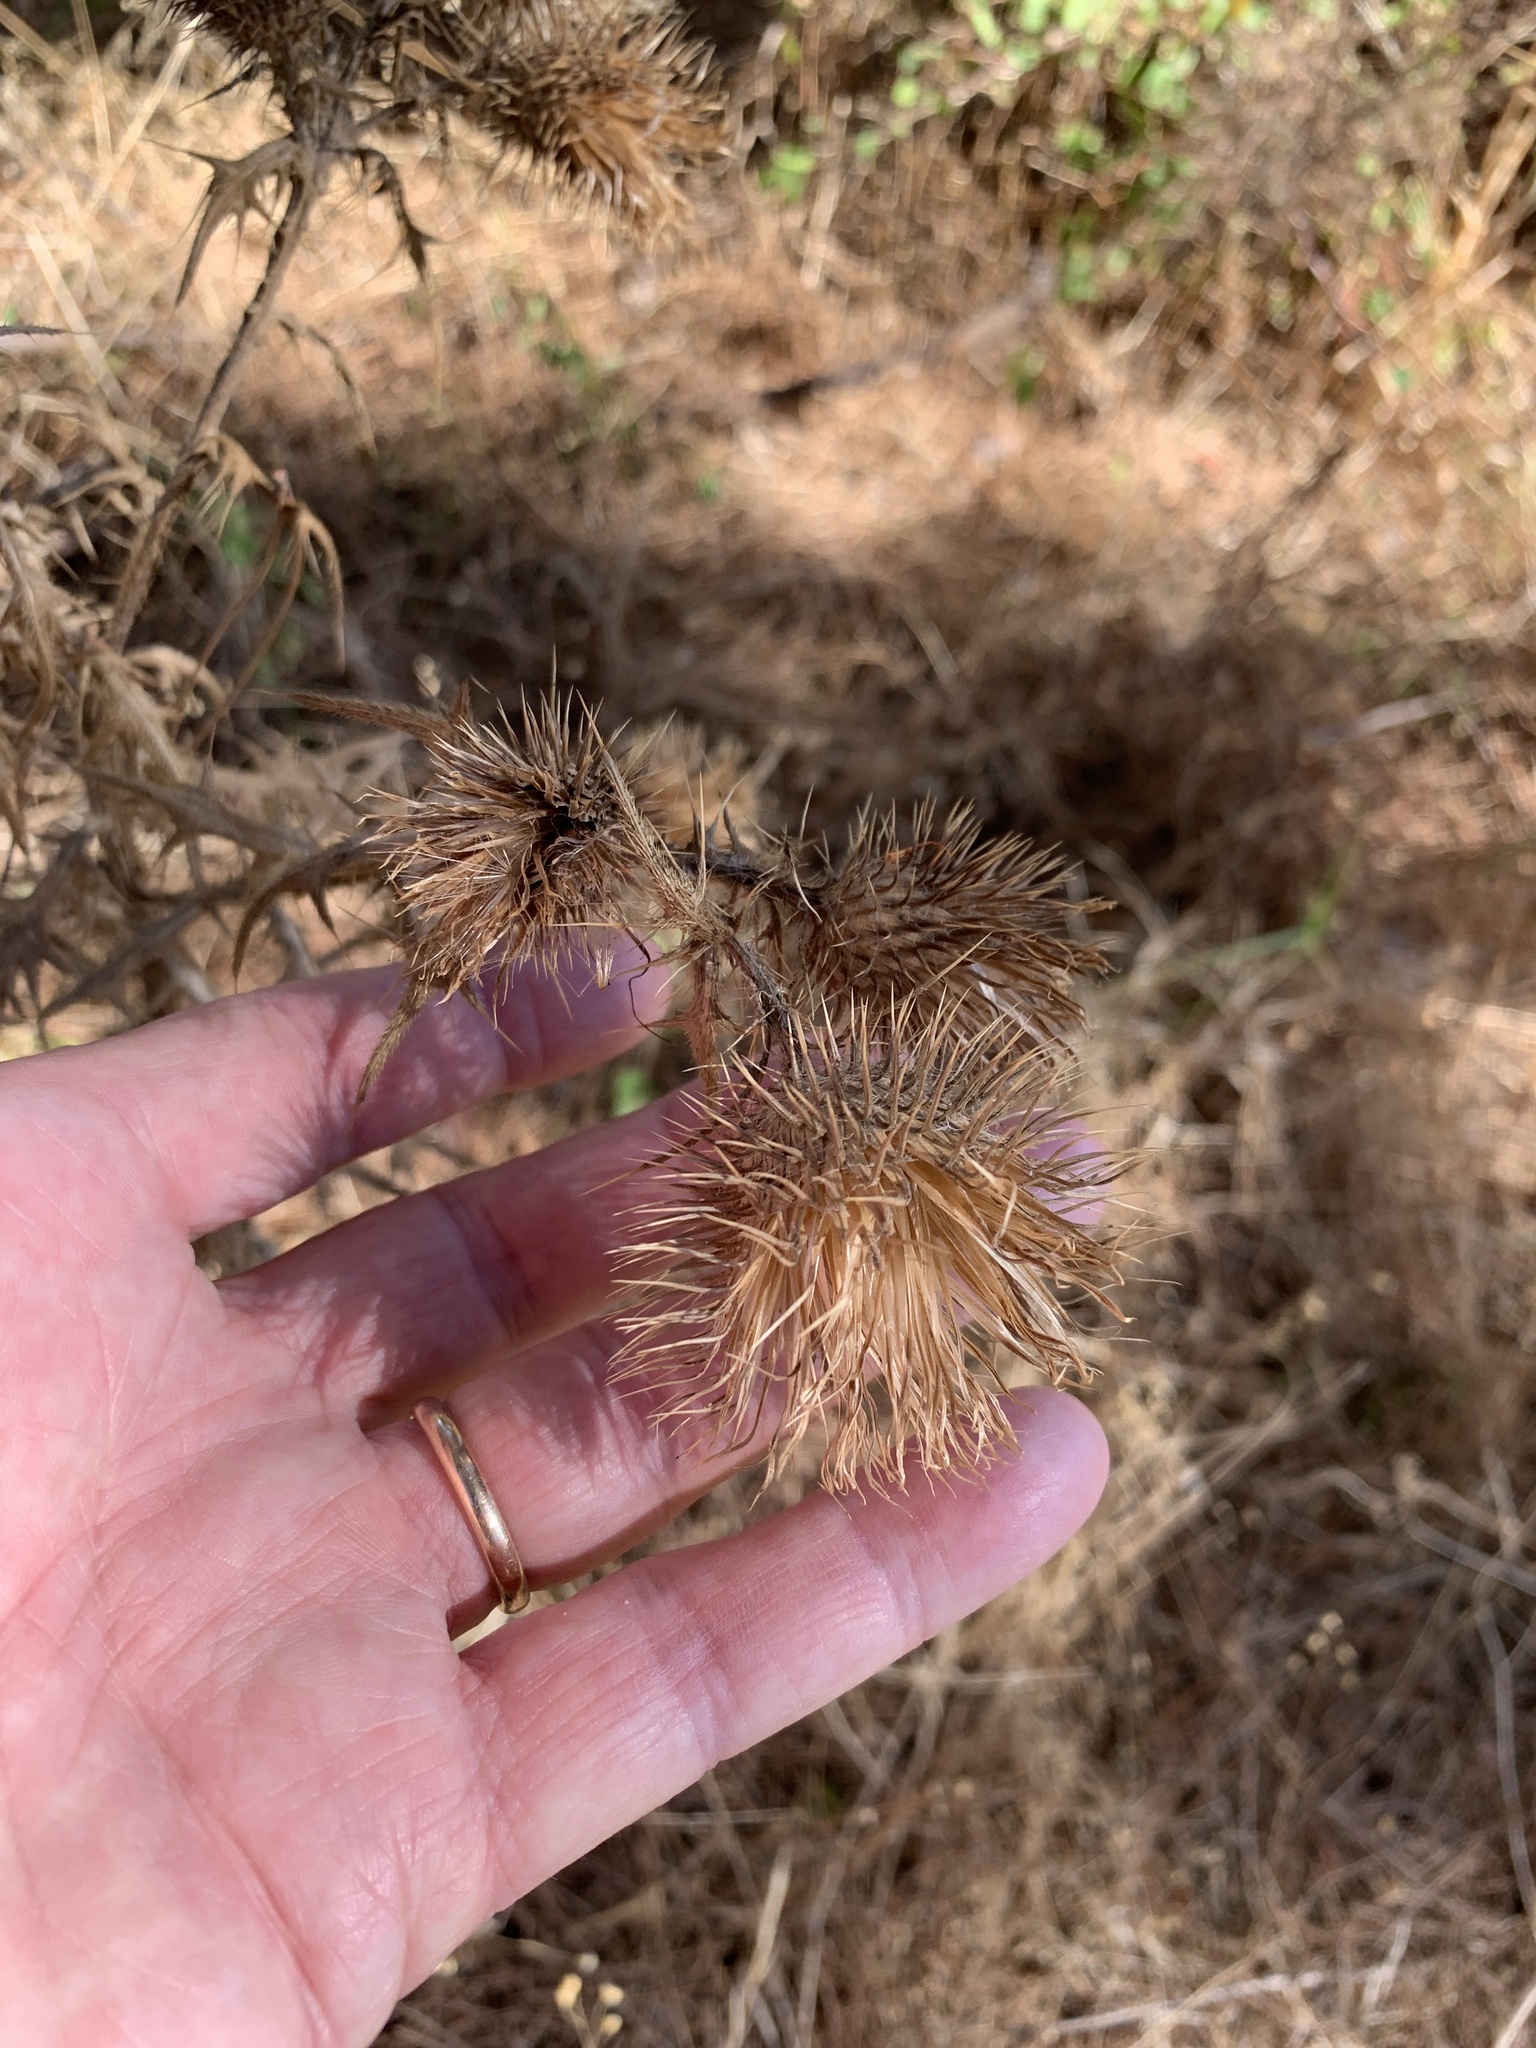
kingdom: Plantae
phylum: Tracheophyta
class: Magnoliopsida
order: Asterales
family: Asteraceae
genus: Cirsium
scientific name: Cirsium vulgare
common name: Bull thistle
